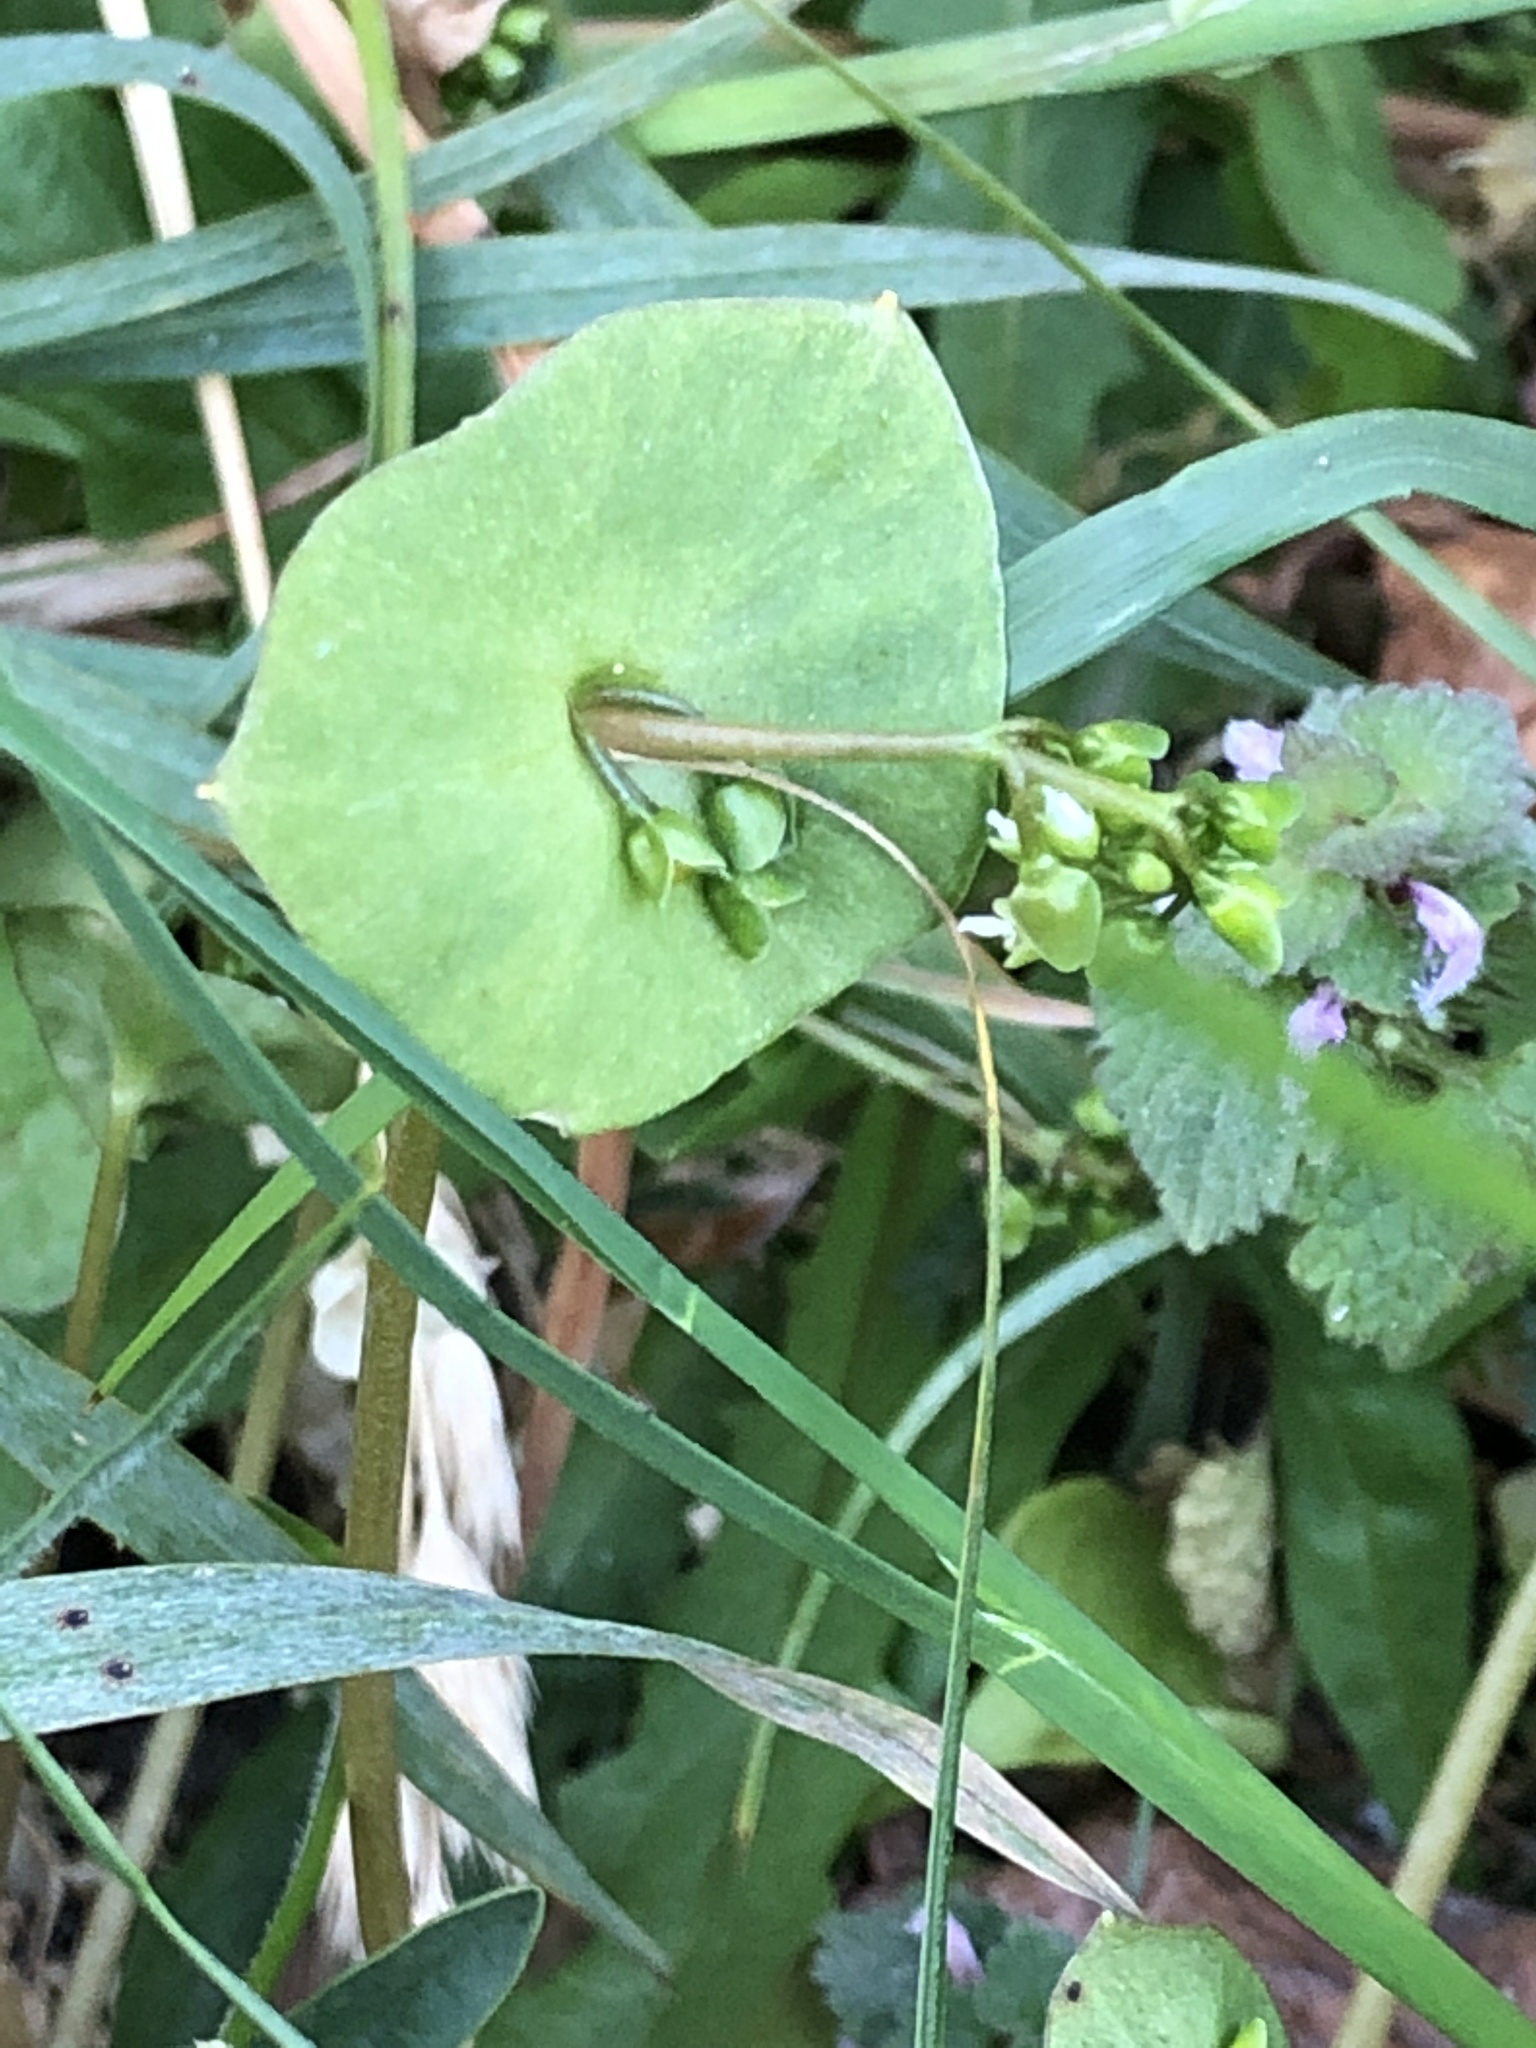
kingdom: Plantae
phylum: Tracheophyta
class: Magnoliopsida
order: Caryophyllales
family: Montiaceae
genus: Claytonia
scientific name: Claytonia perfoliata
